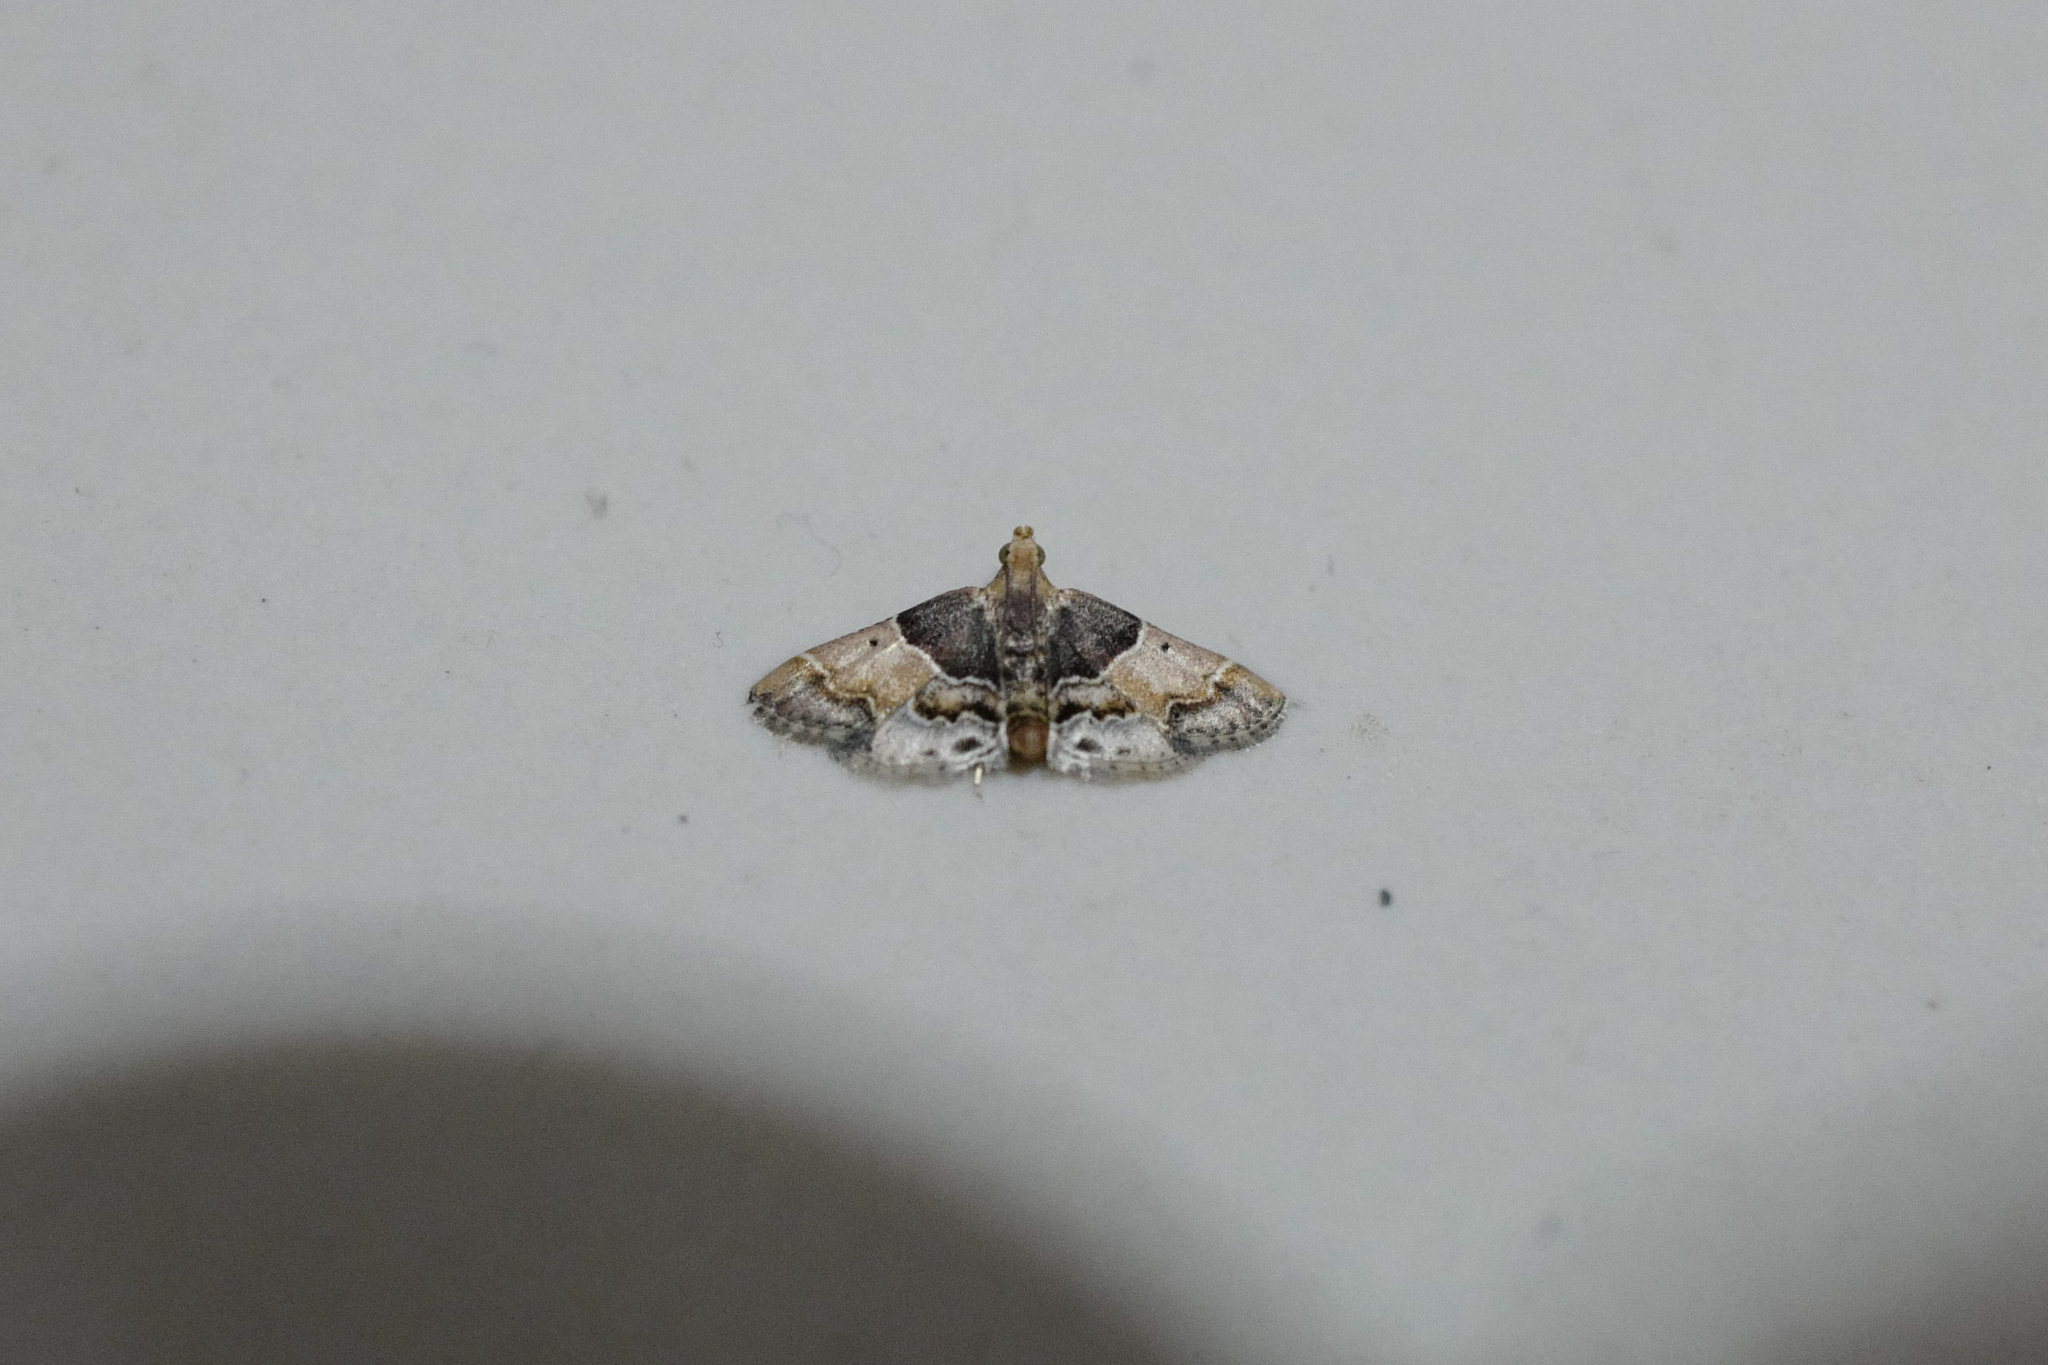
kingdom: Animalia
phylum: Arthropoda
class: Insecta
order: Lepidoptera
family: Pyralidae
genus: Pyralis
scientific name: Pyralis pictalis
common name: Painted meal moth
